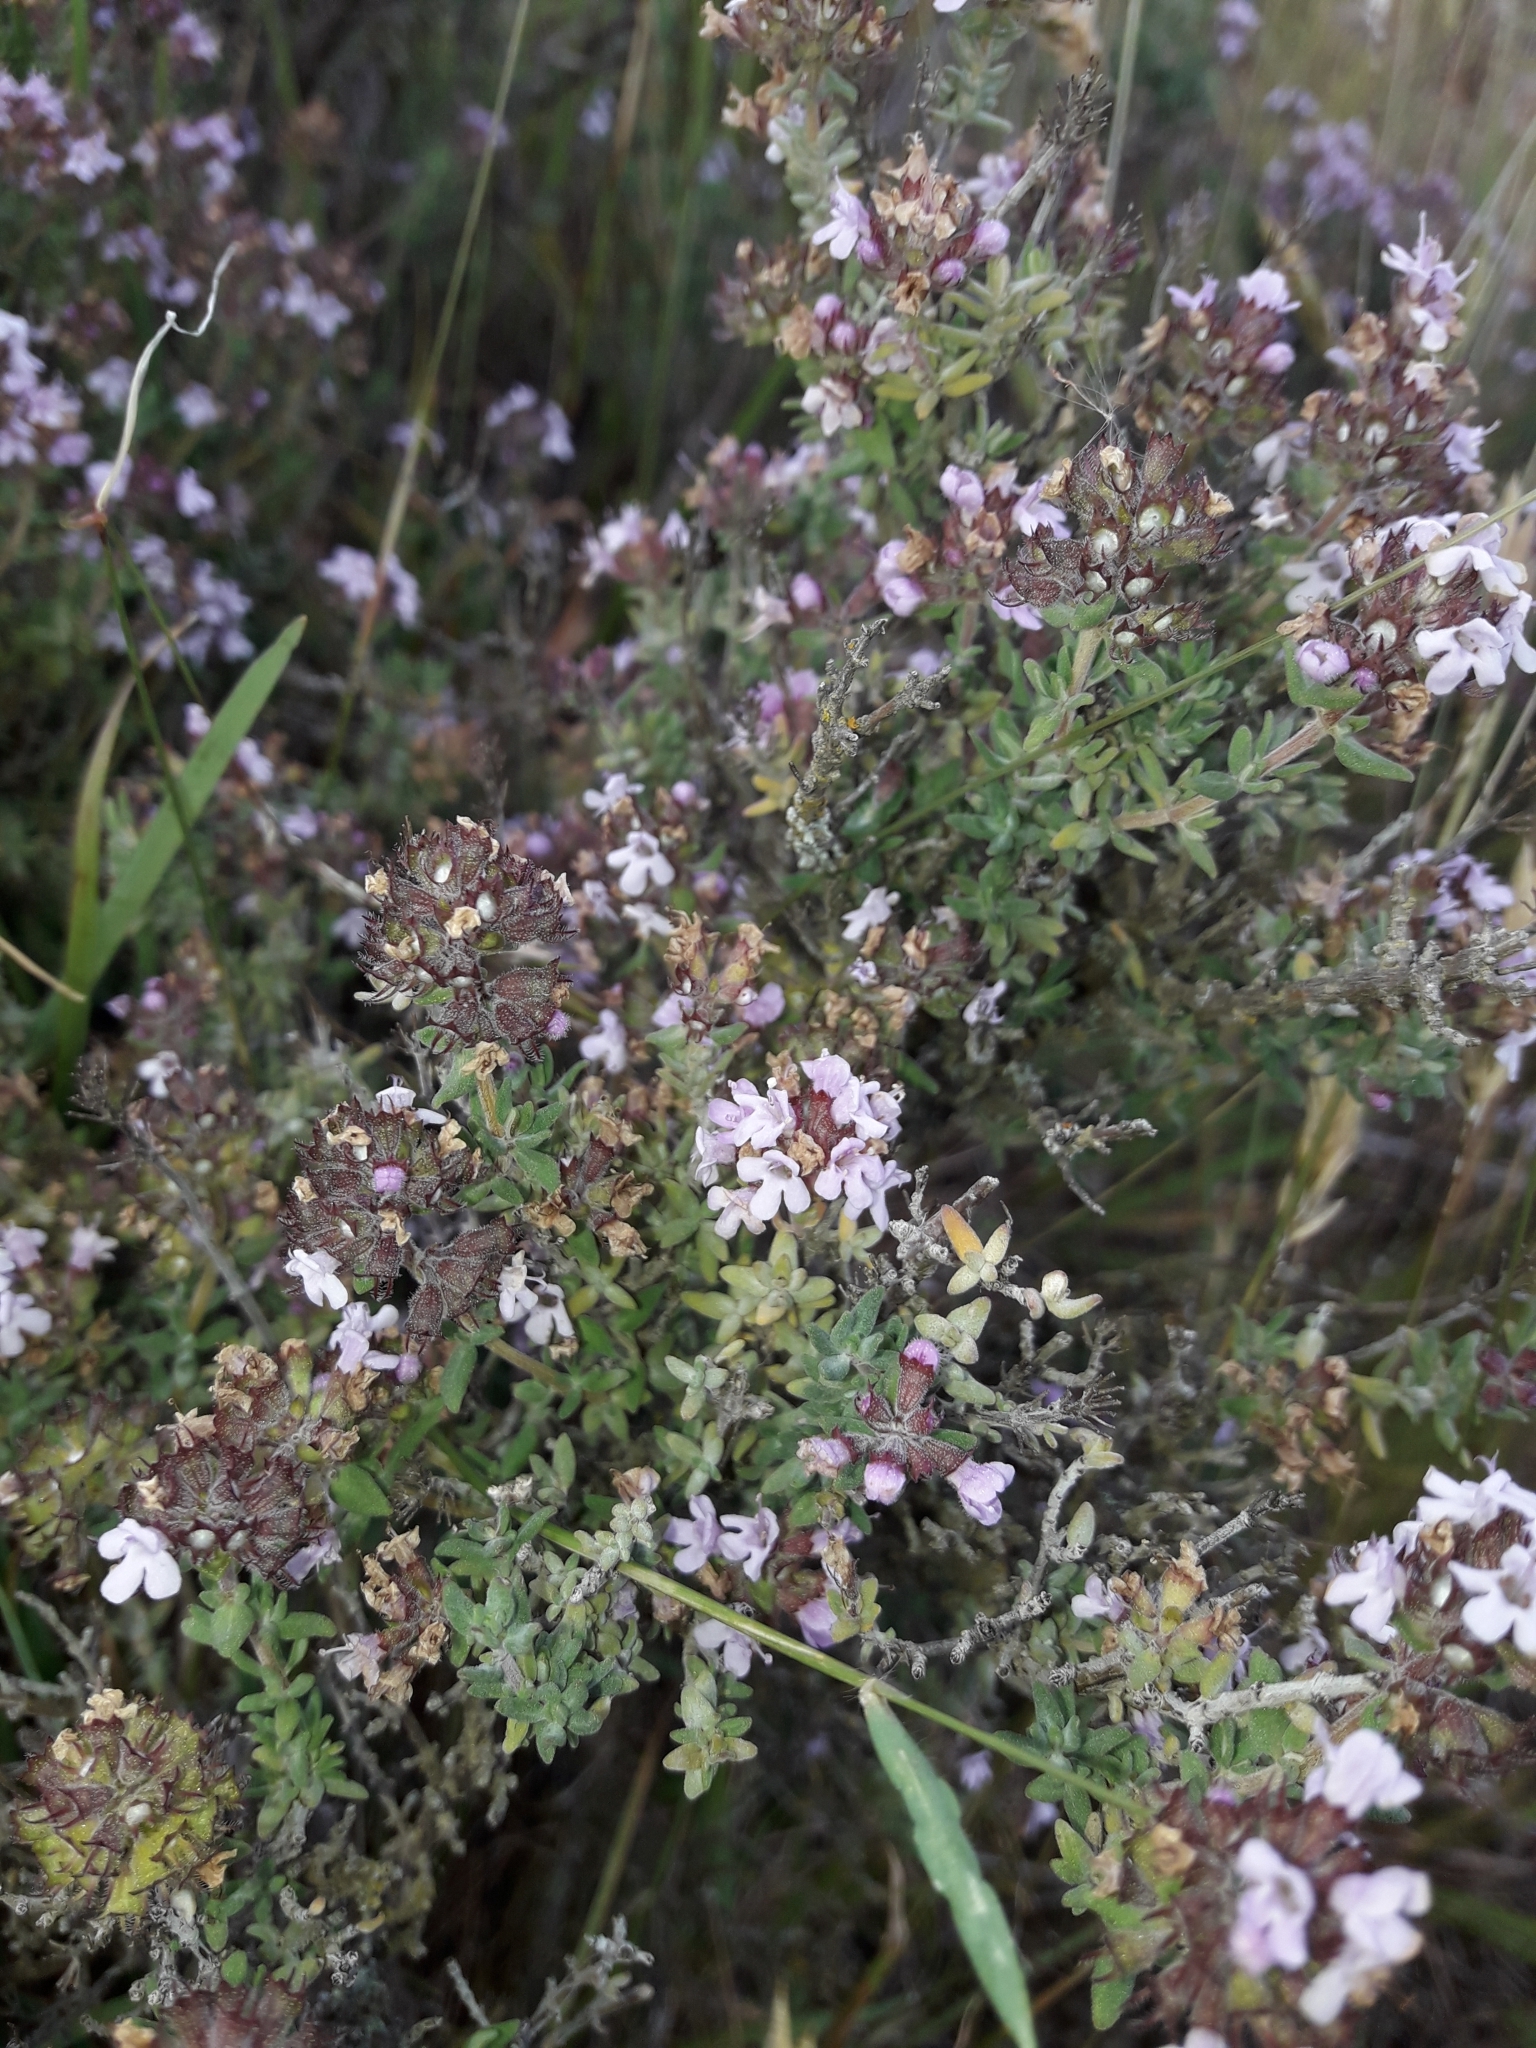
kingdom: Plantae
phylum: Tracheophyta
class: Magnoliopsida
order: Lamiales
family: Lamiaceae
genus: Thymus
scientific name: Thymus vulgaris
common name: Garden thyme
